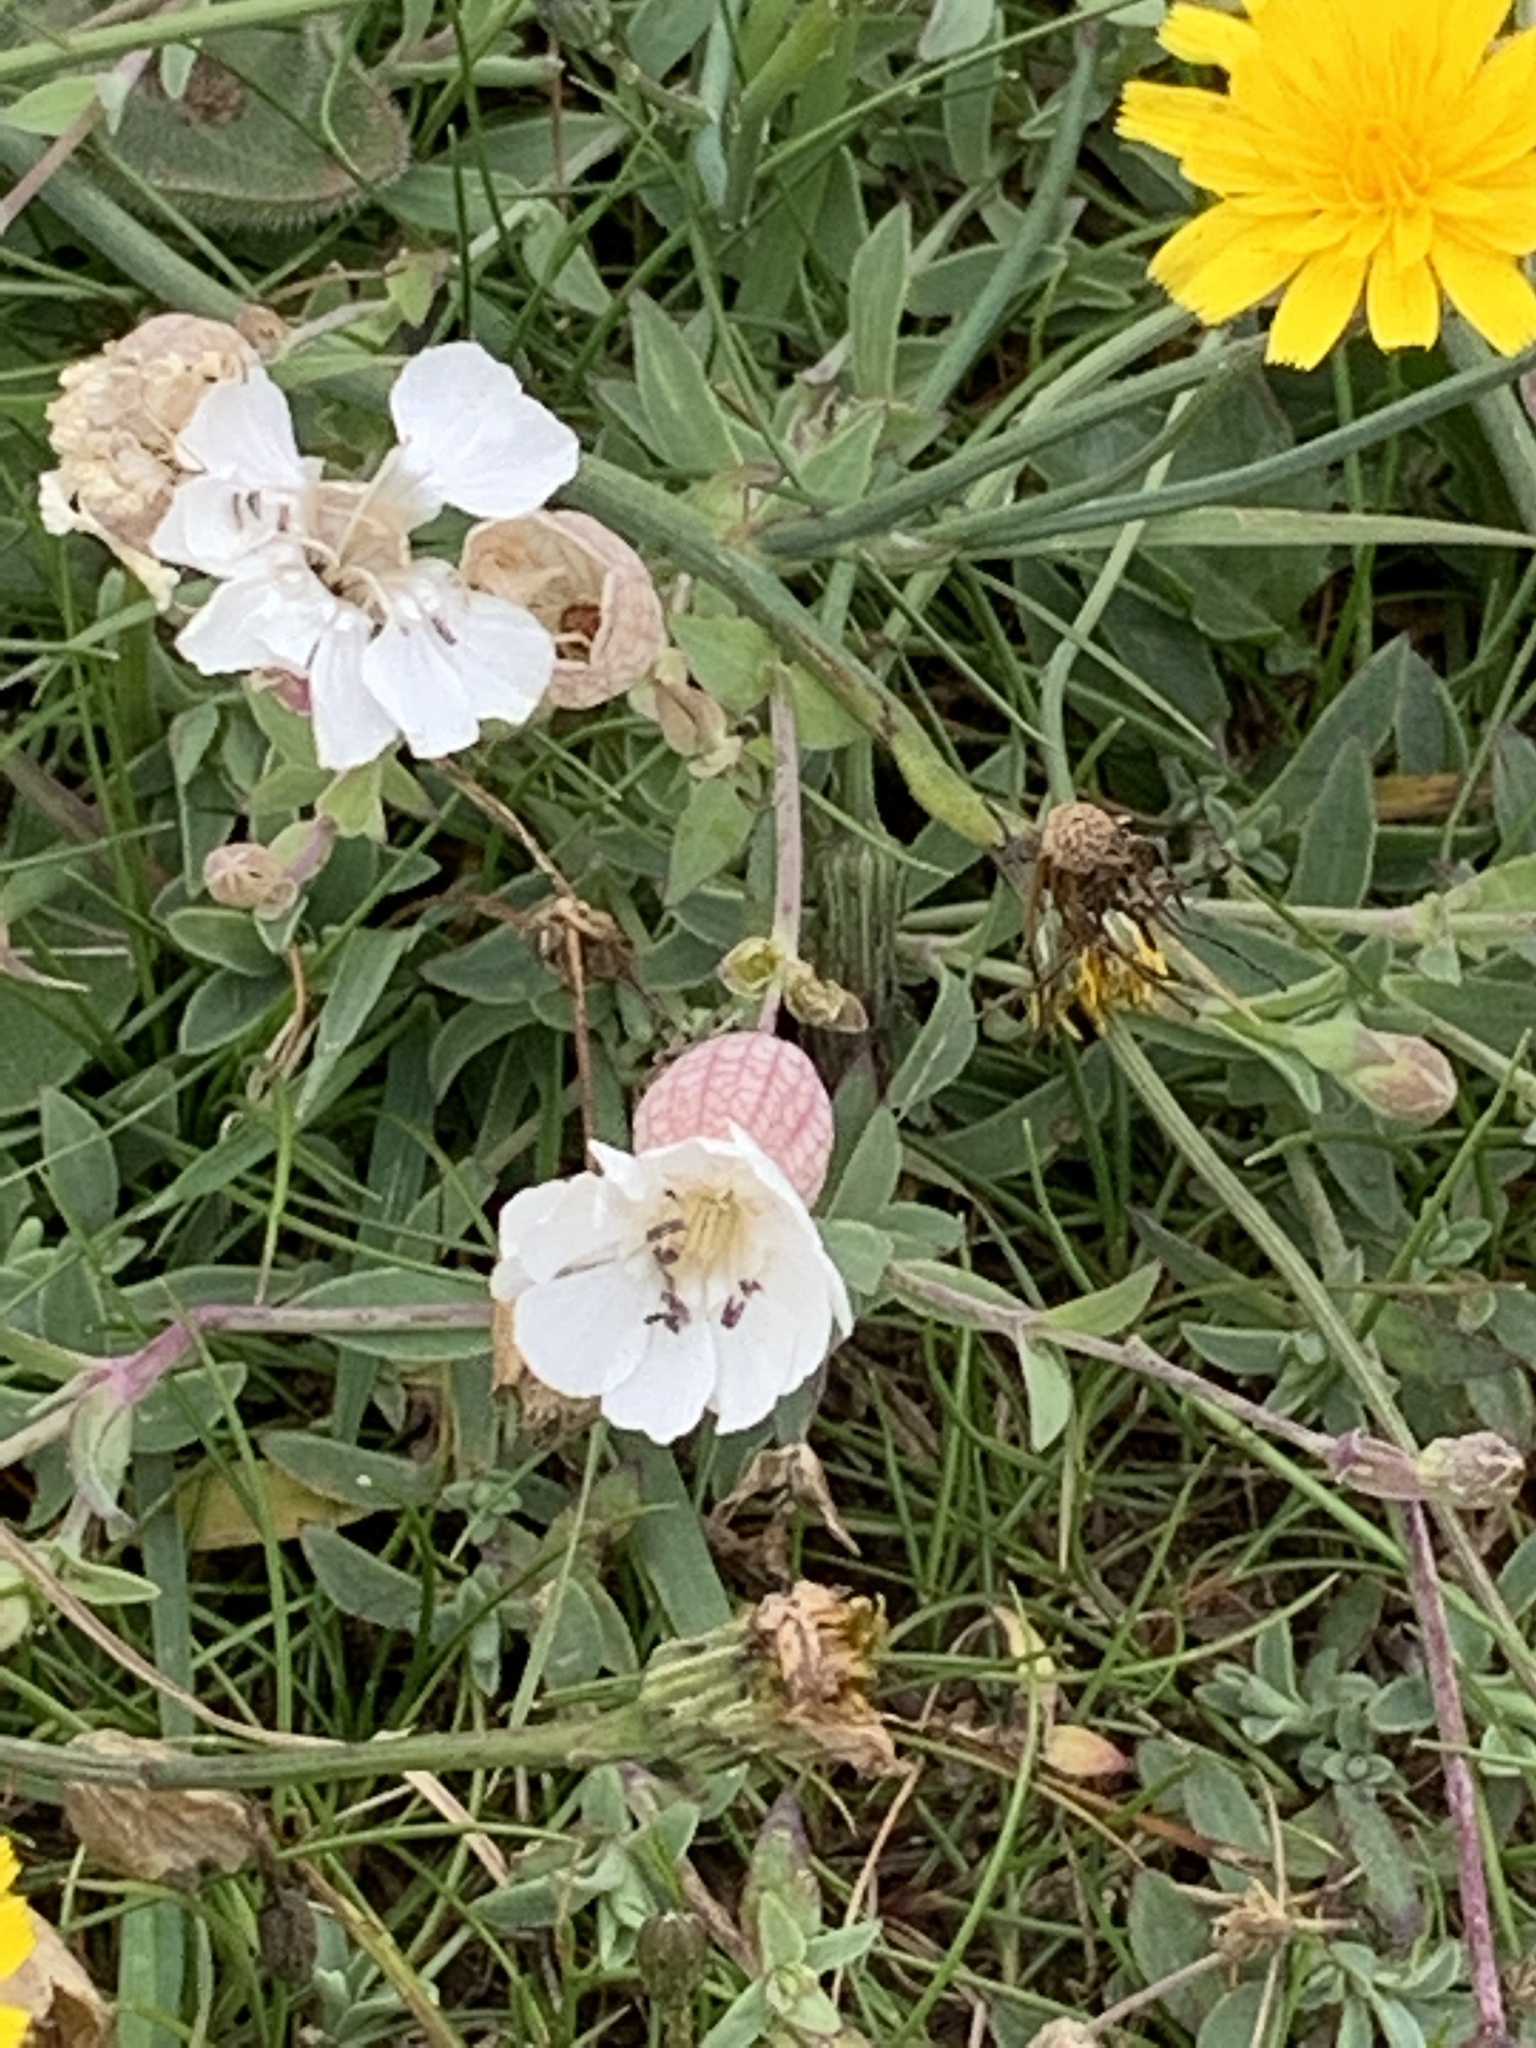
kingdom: Plantae
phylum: Tracheophyta
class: Magnoliopsida
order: Caryophyllales
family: Caryophyllaceae
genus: Silene
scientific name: Silene uniflora
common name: Sea campion
